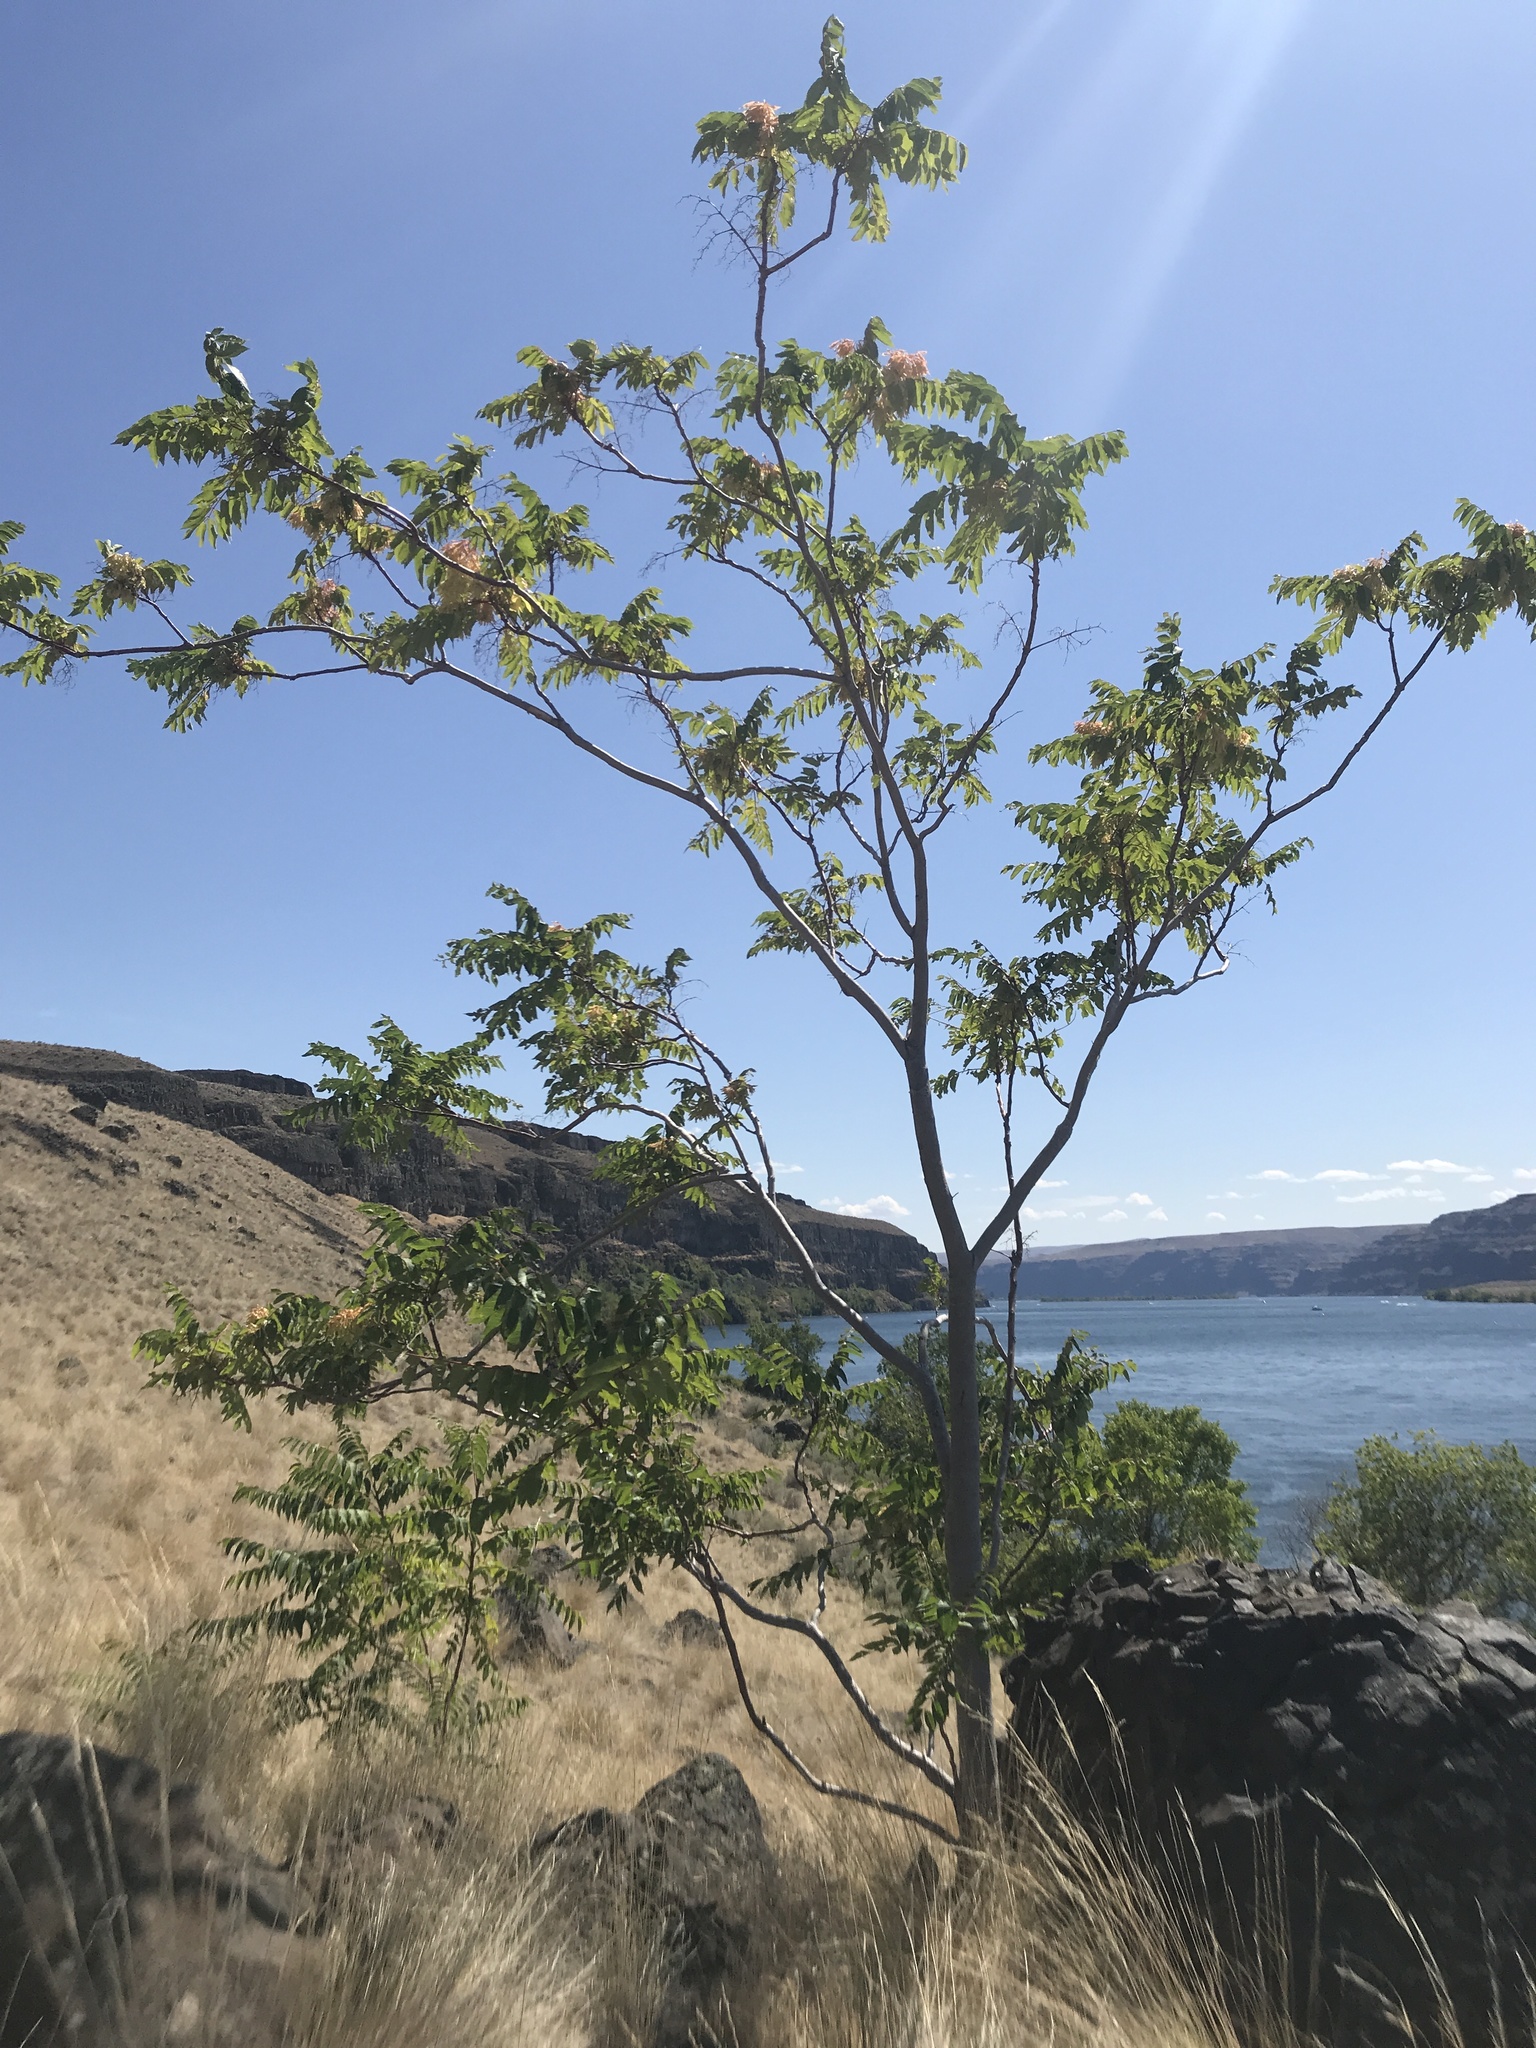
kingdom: Plantae
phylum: Tracheophyta
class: Magnoliopsida
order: Sapindales
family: Simaroubaceae
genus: Ailanthus
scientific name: Ailanthus altissima
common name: Tree-of-heaven
